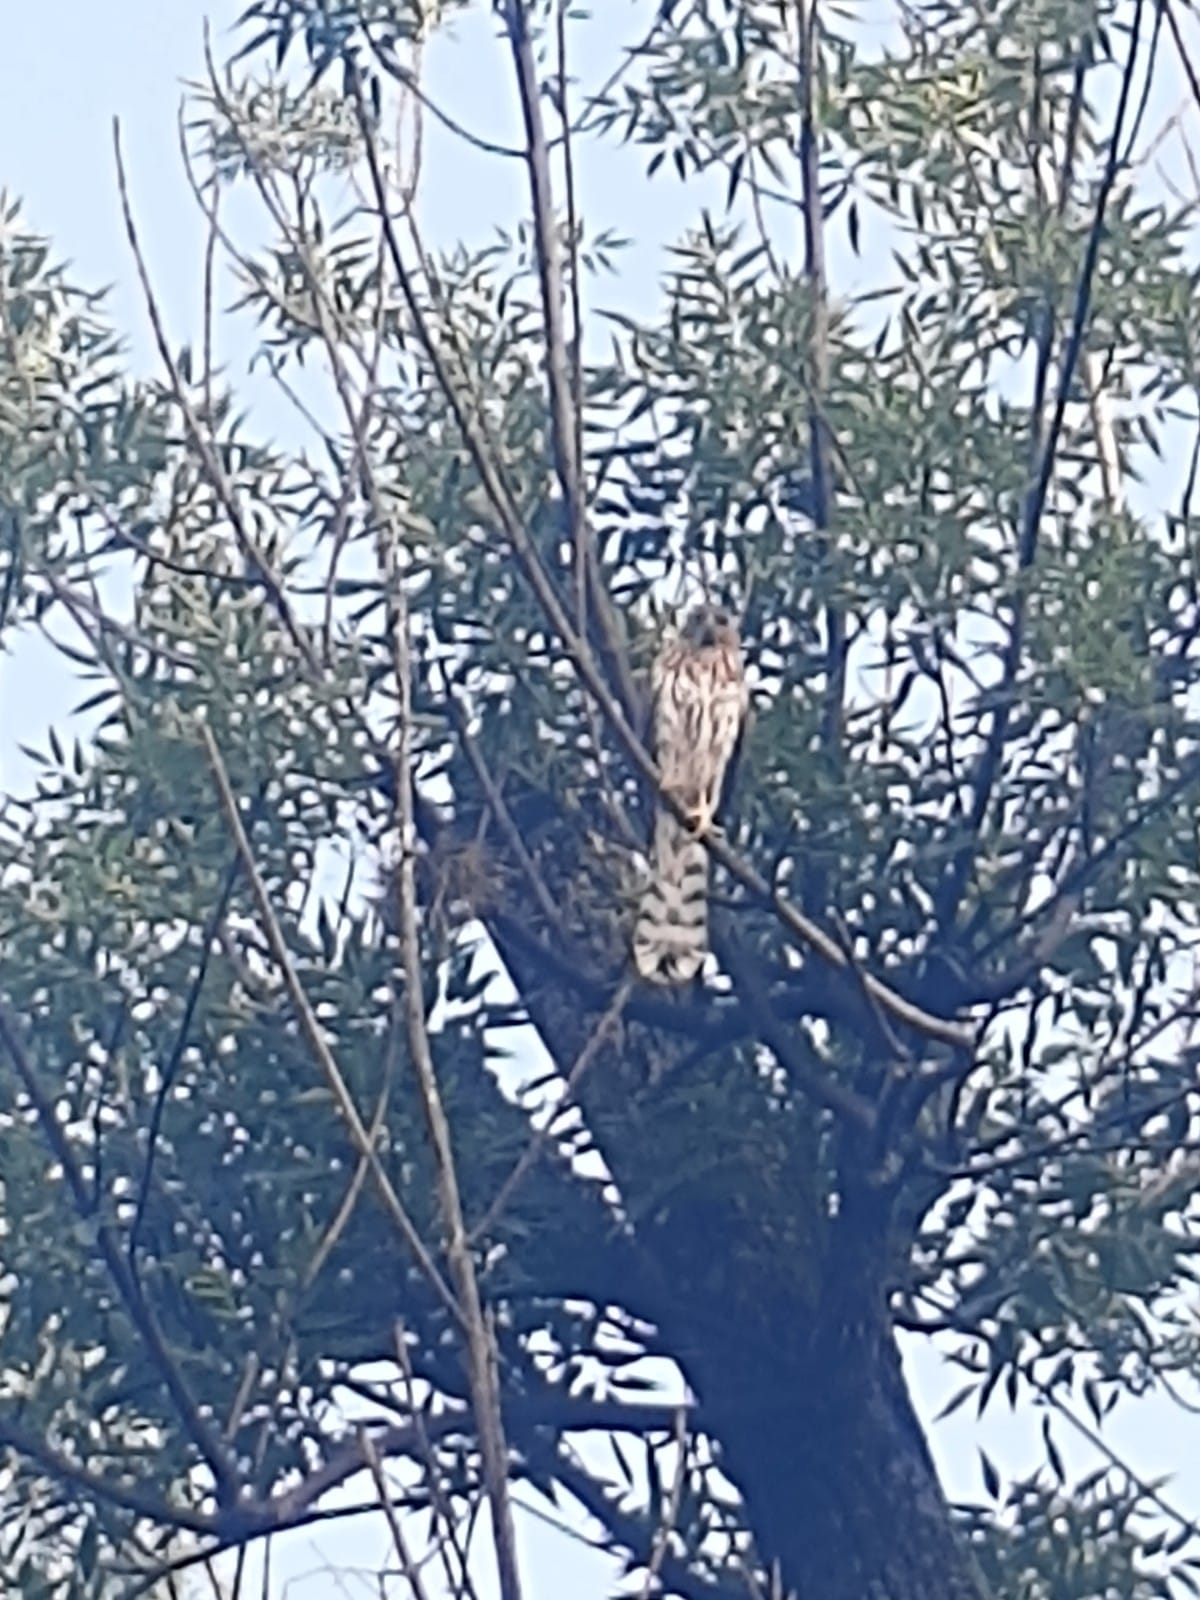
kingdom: Animalia
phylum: Chordata
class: Aves
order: Accipitriformes
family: Accipitridae
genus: Accipiter
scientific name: Accipiter cooperii
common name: Cooper's hawk
